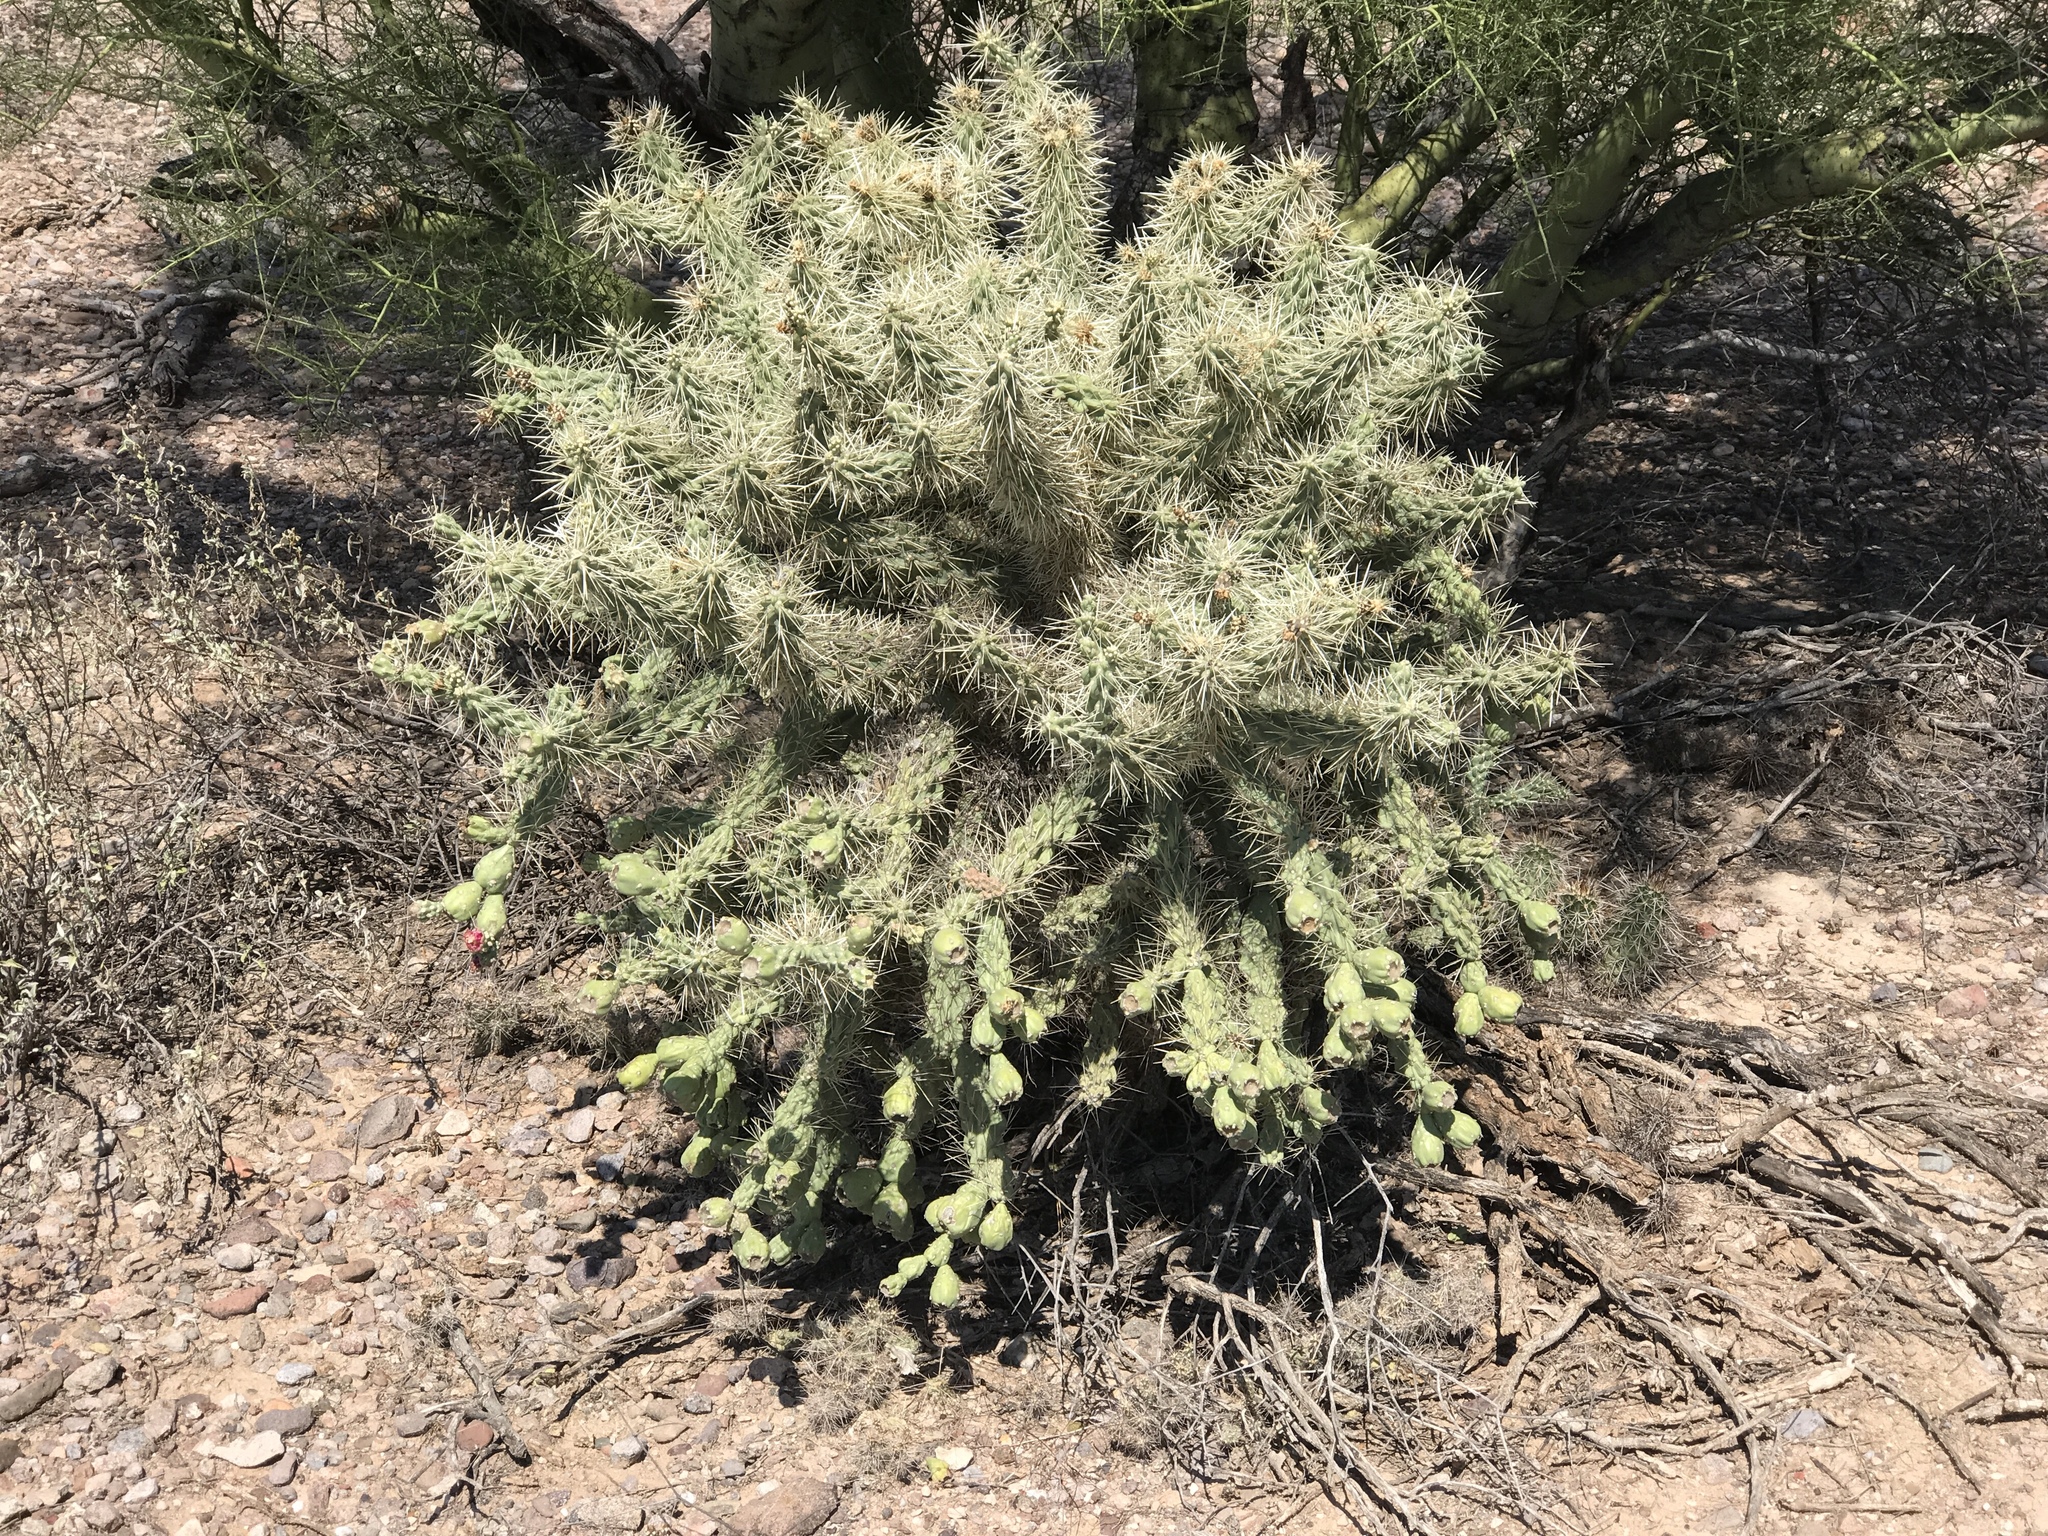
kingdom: Plantae
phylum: Tracheophyta
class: Magnoliopsida
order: Caryophyllales
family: Cactaceae
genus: Cylindropuntia
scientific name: Cylindropuntia fulgida
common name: Jumping cholla
